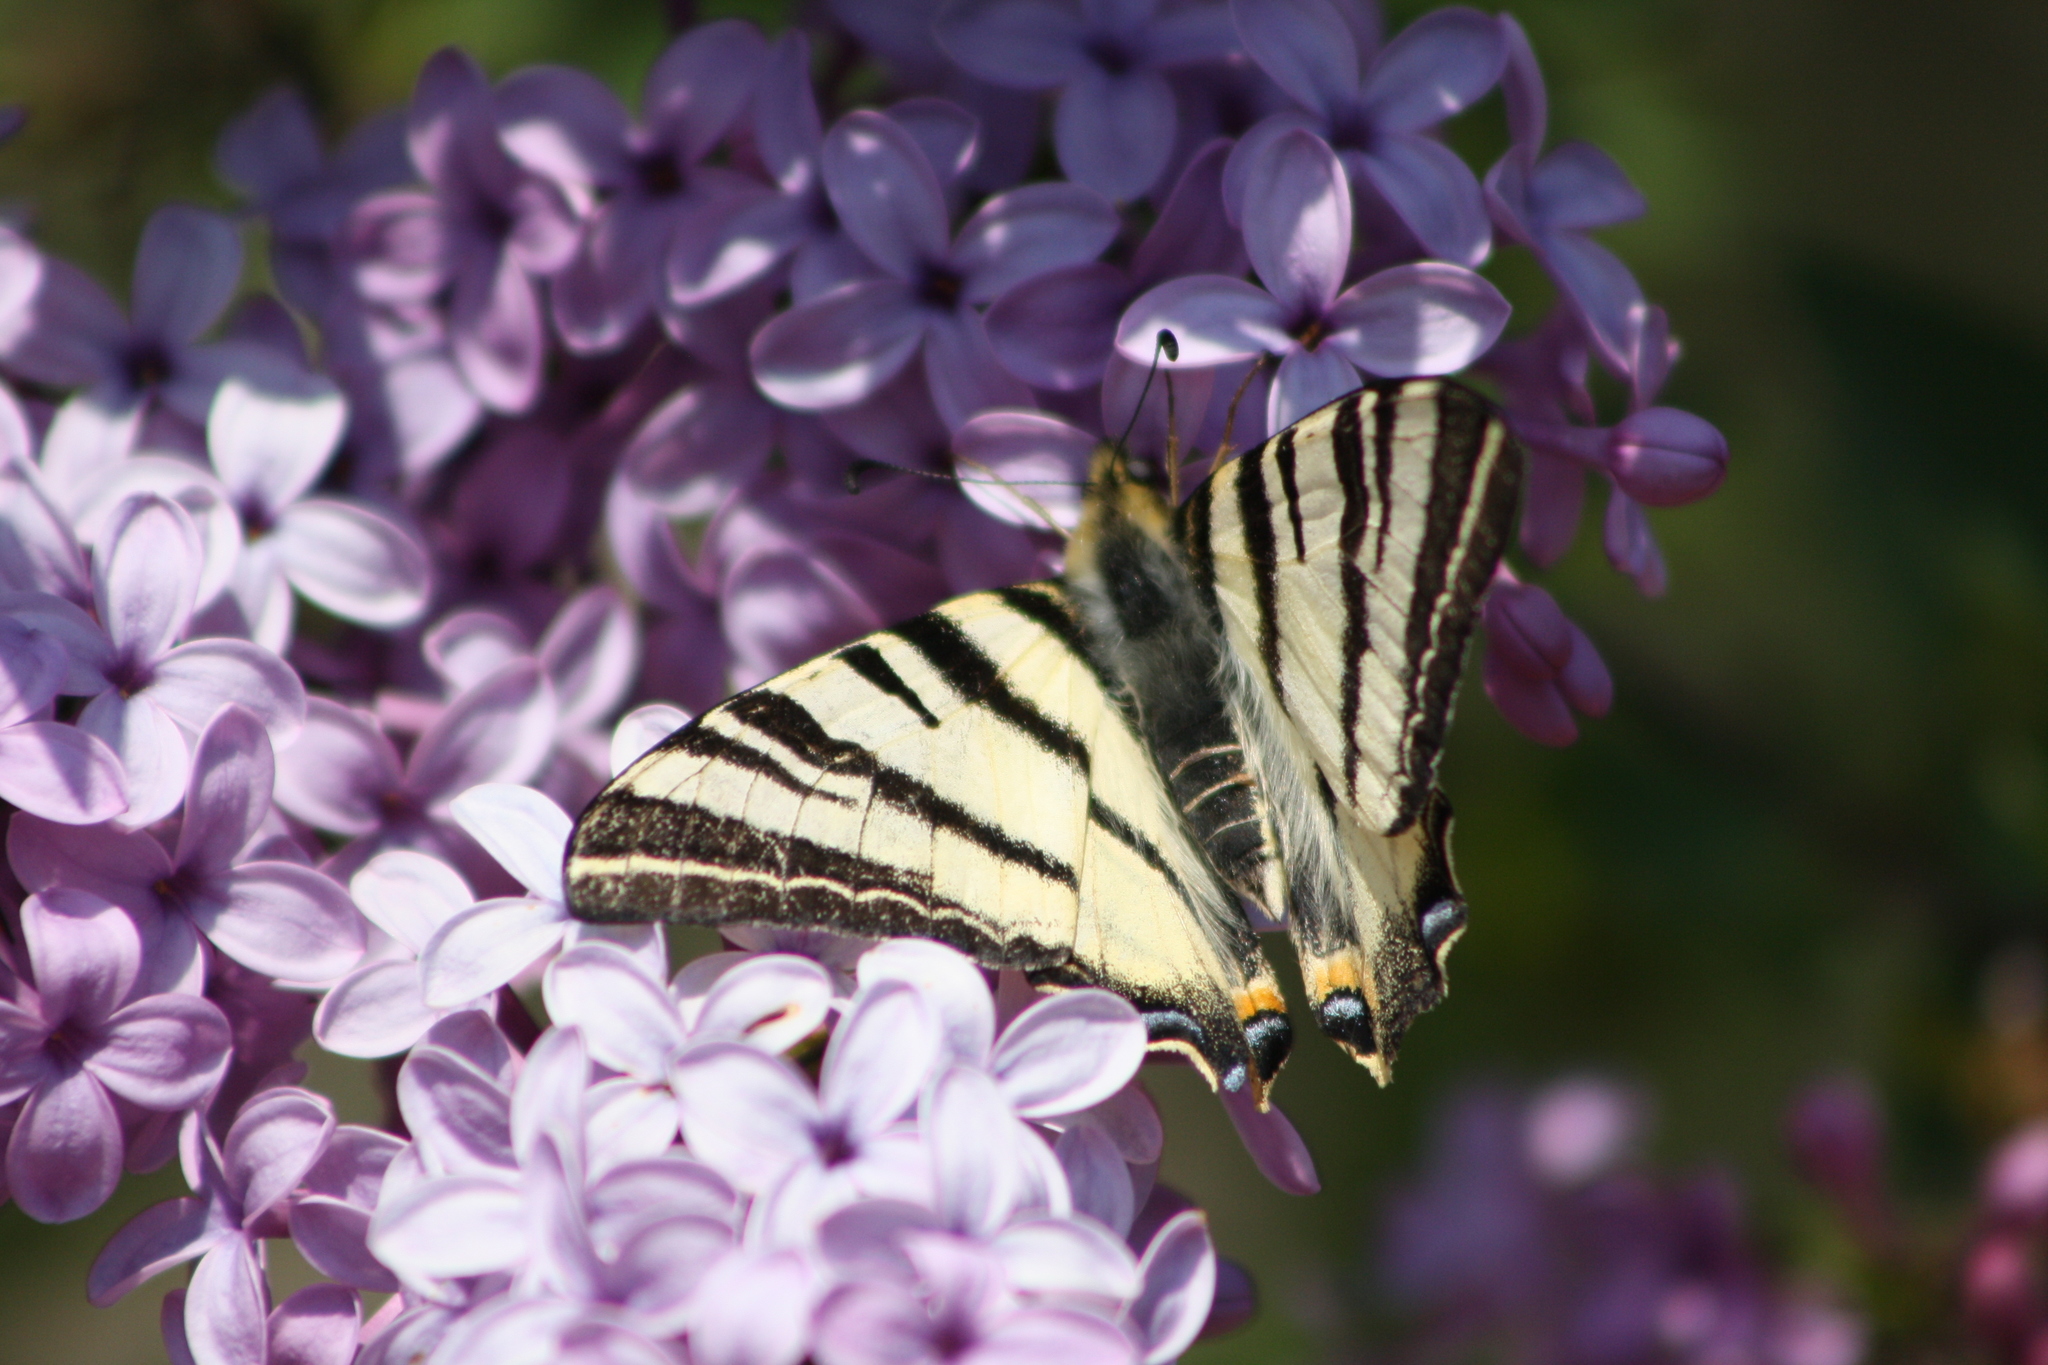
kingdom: Animalia
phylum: Arthropoda
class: Insecta
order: Lepidoptera
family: Papilionidae
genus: Iphiclides
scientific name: Iphiclides podalirius
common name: Scarce swallowtail
